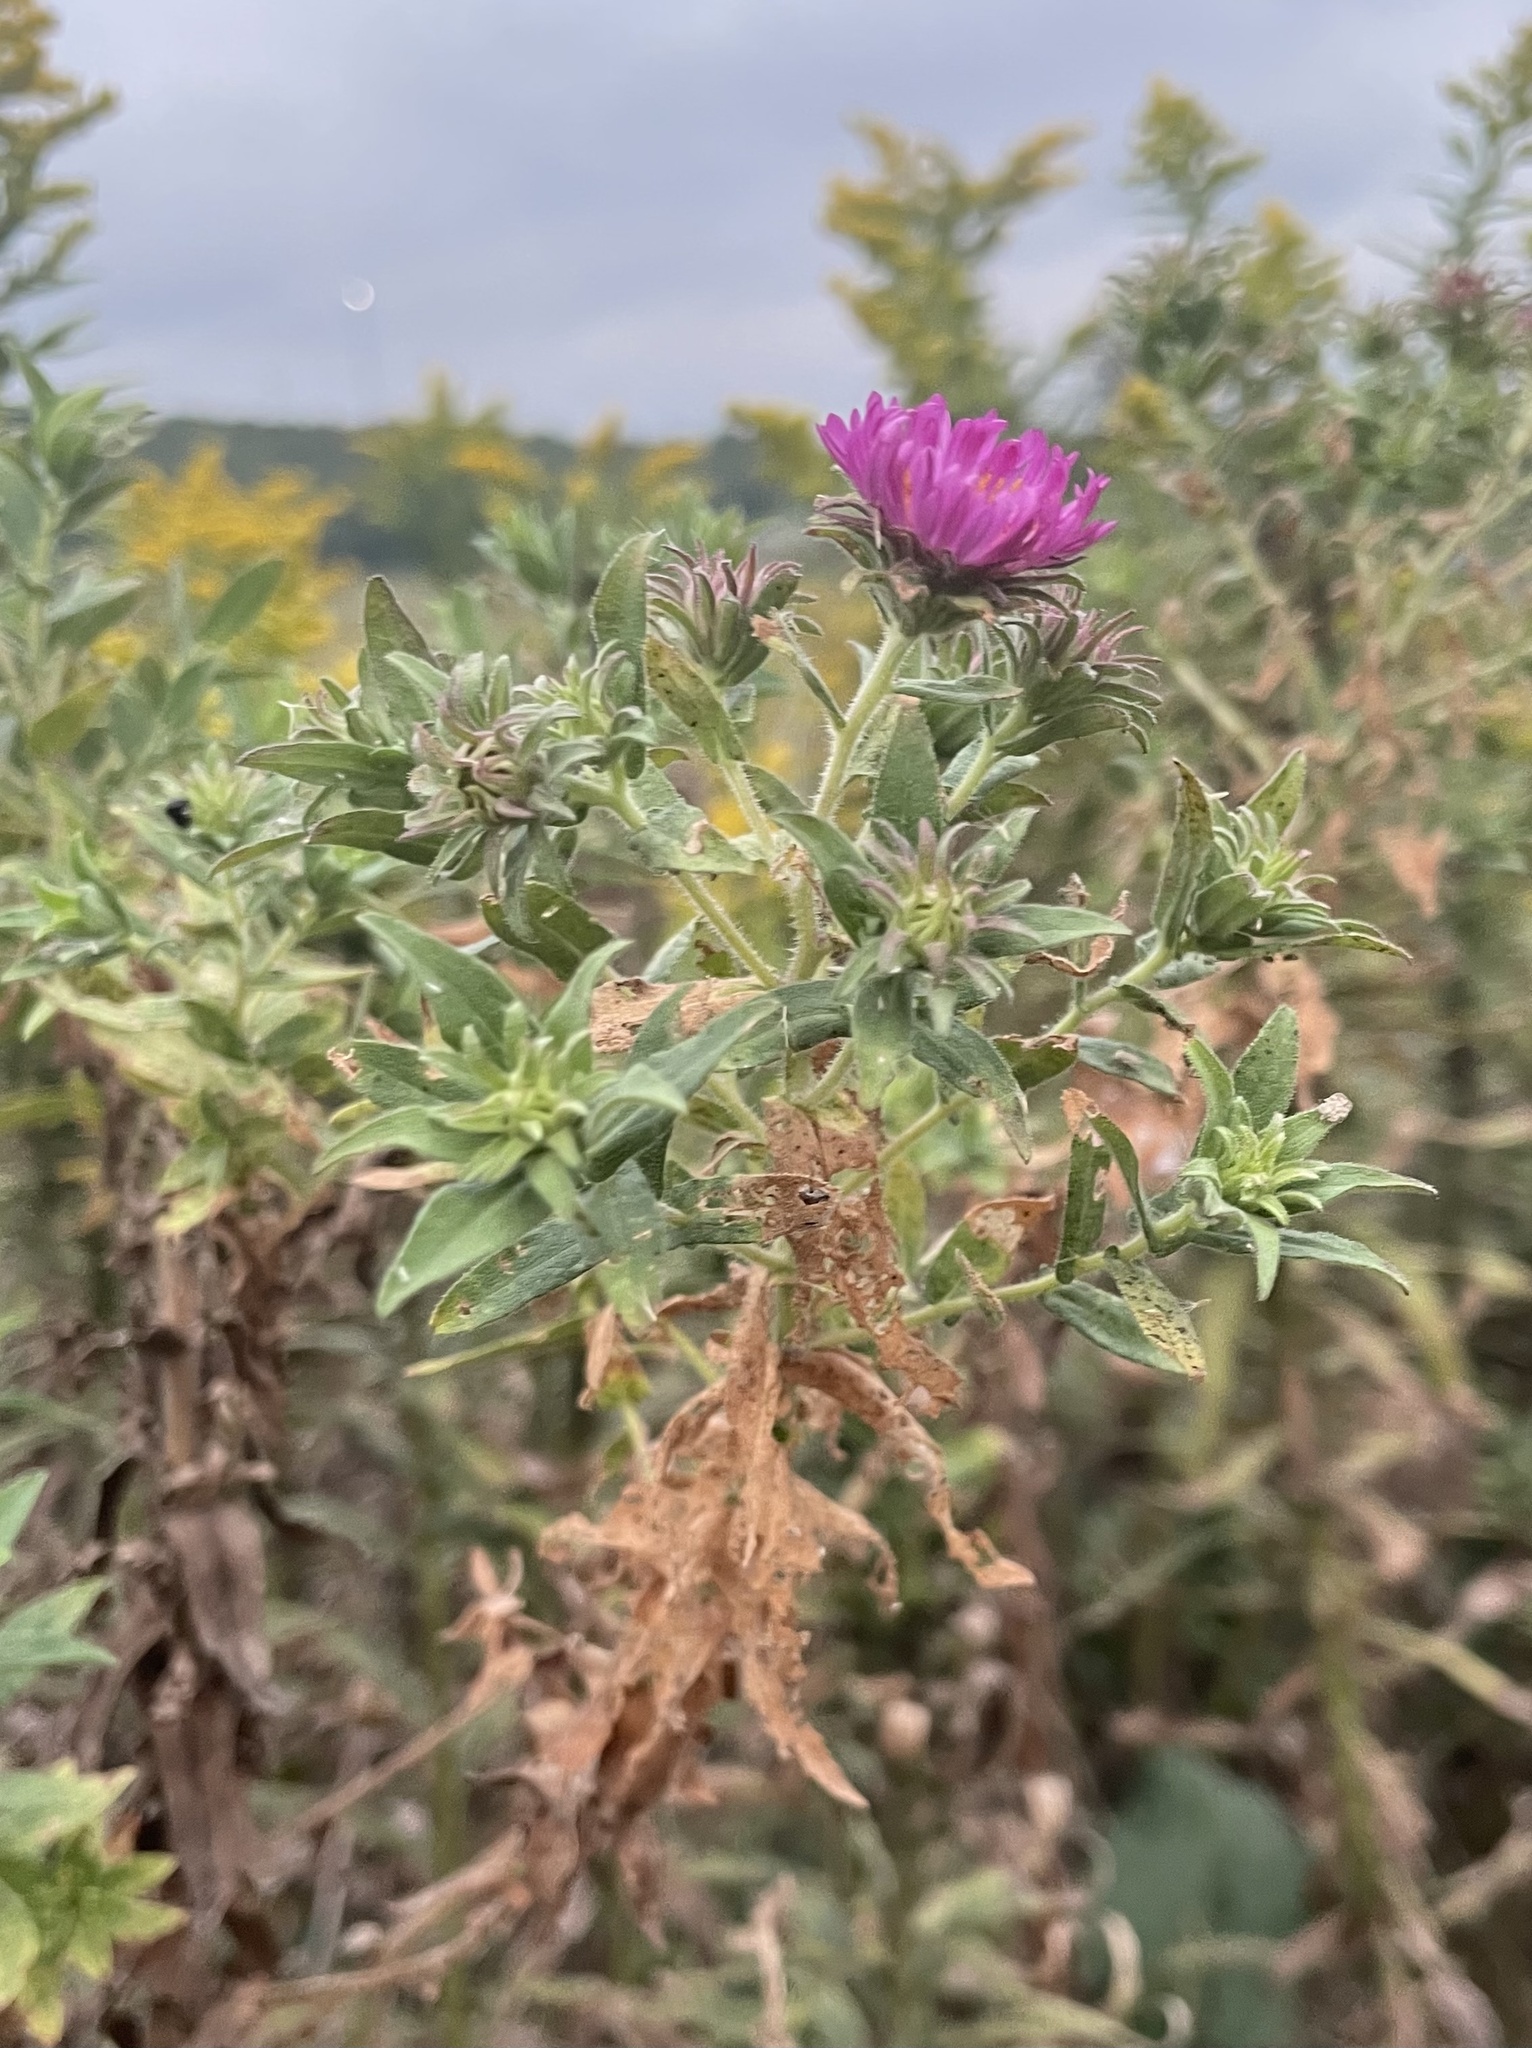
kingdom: Plantae
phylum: Tracheophyta
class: Magnoliopsida
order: Asterales
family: Asteraceae
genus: Symphyotrichum
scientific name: Symphyotrichum novae-angliae
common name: Michaelmas daisy
